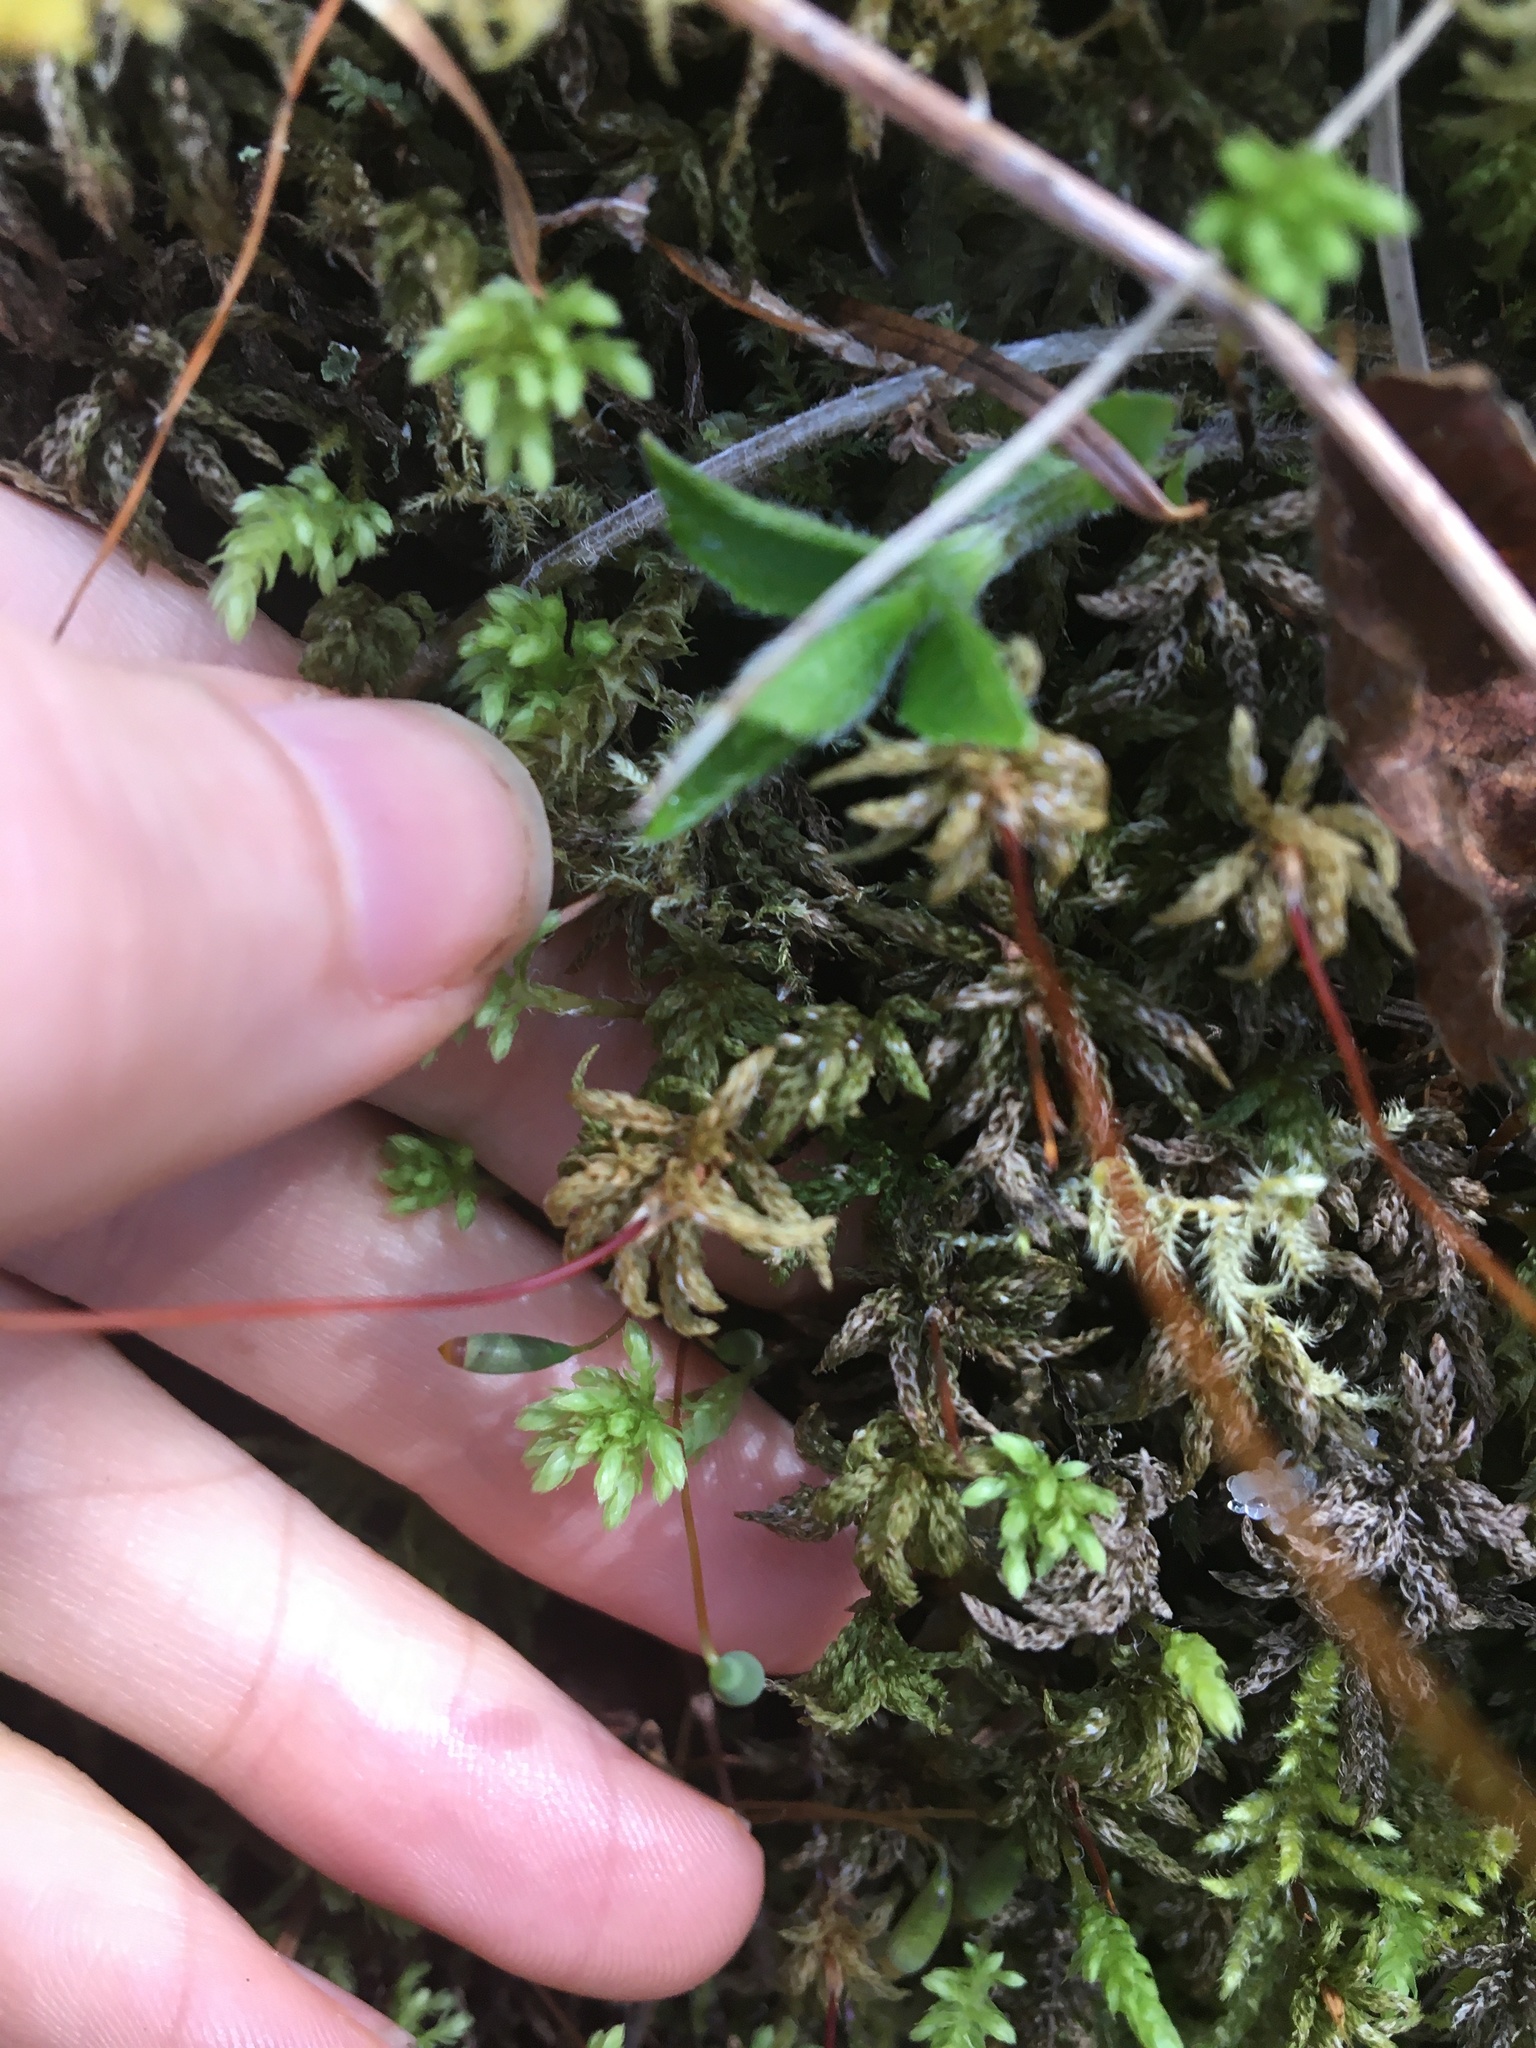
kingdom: Plantae
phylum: Bryophyta
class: Bryopsida
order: Bryales
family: Mniaceae
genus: Leucolepis
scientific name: Leucolepis acanthoneura
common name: Leucolepis umbrella moss
